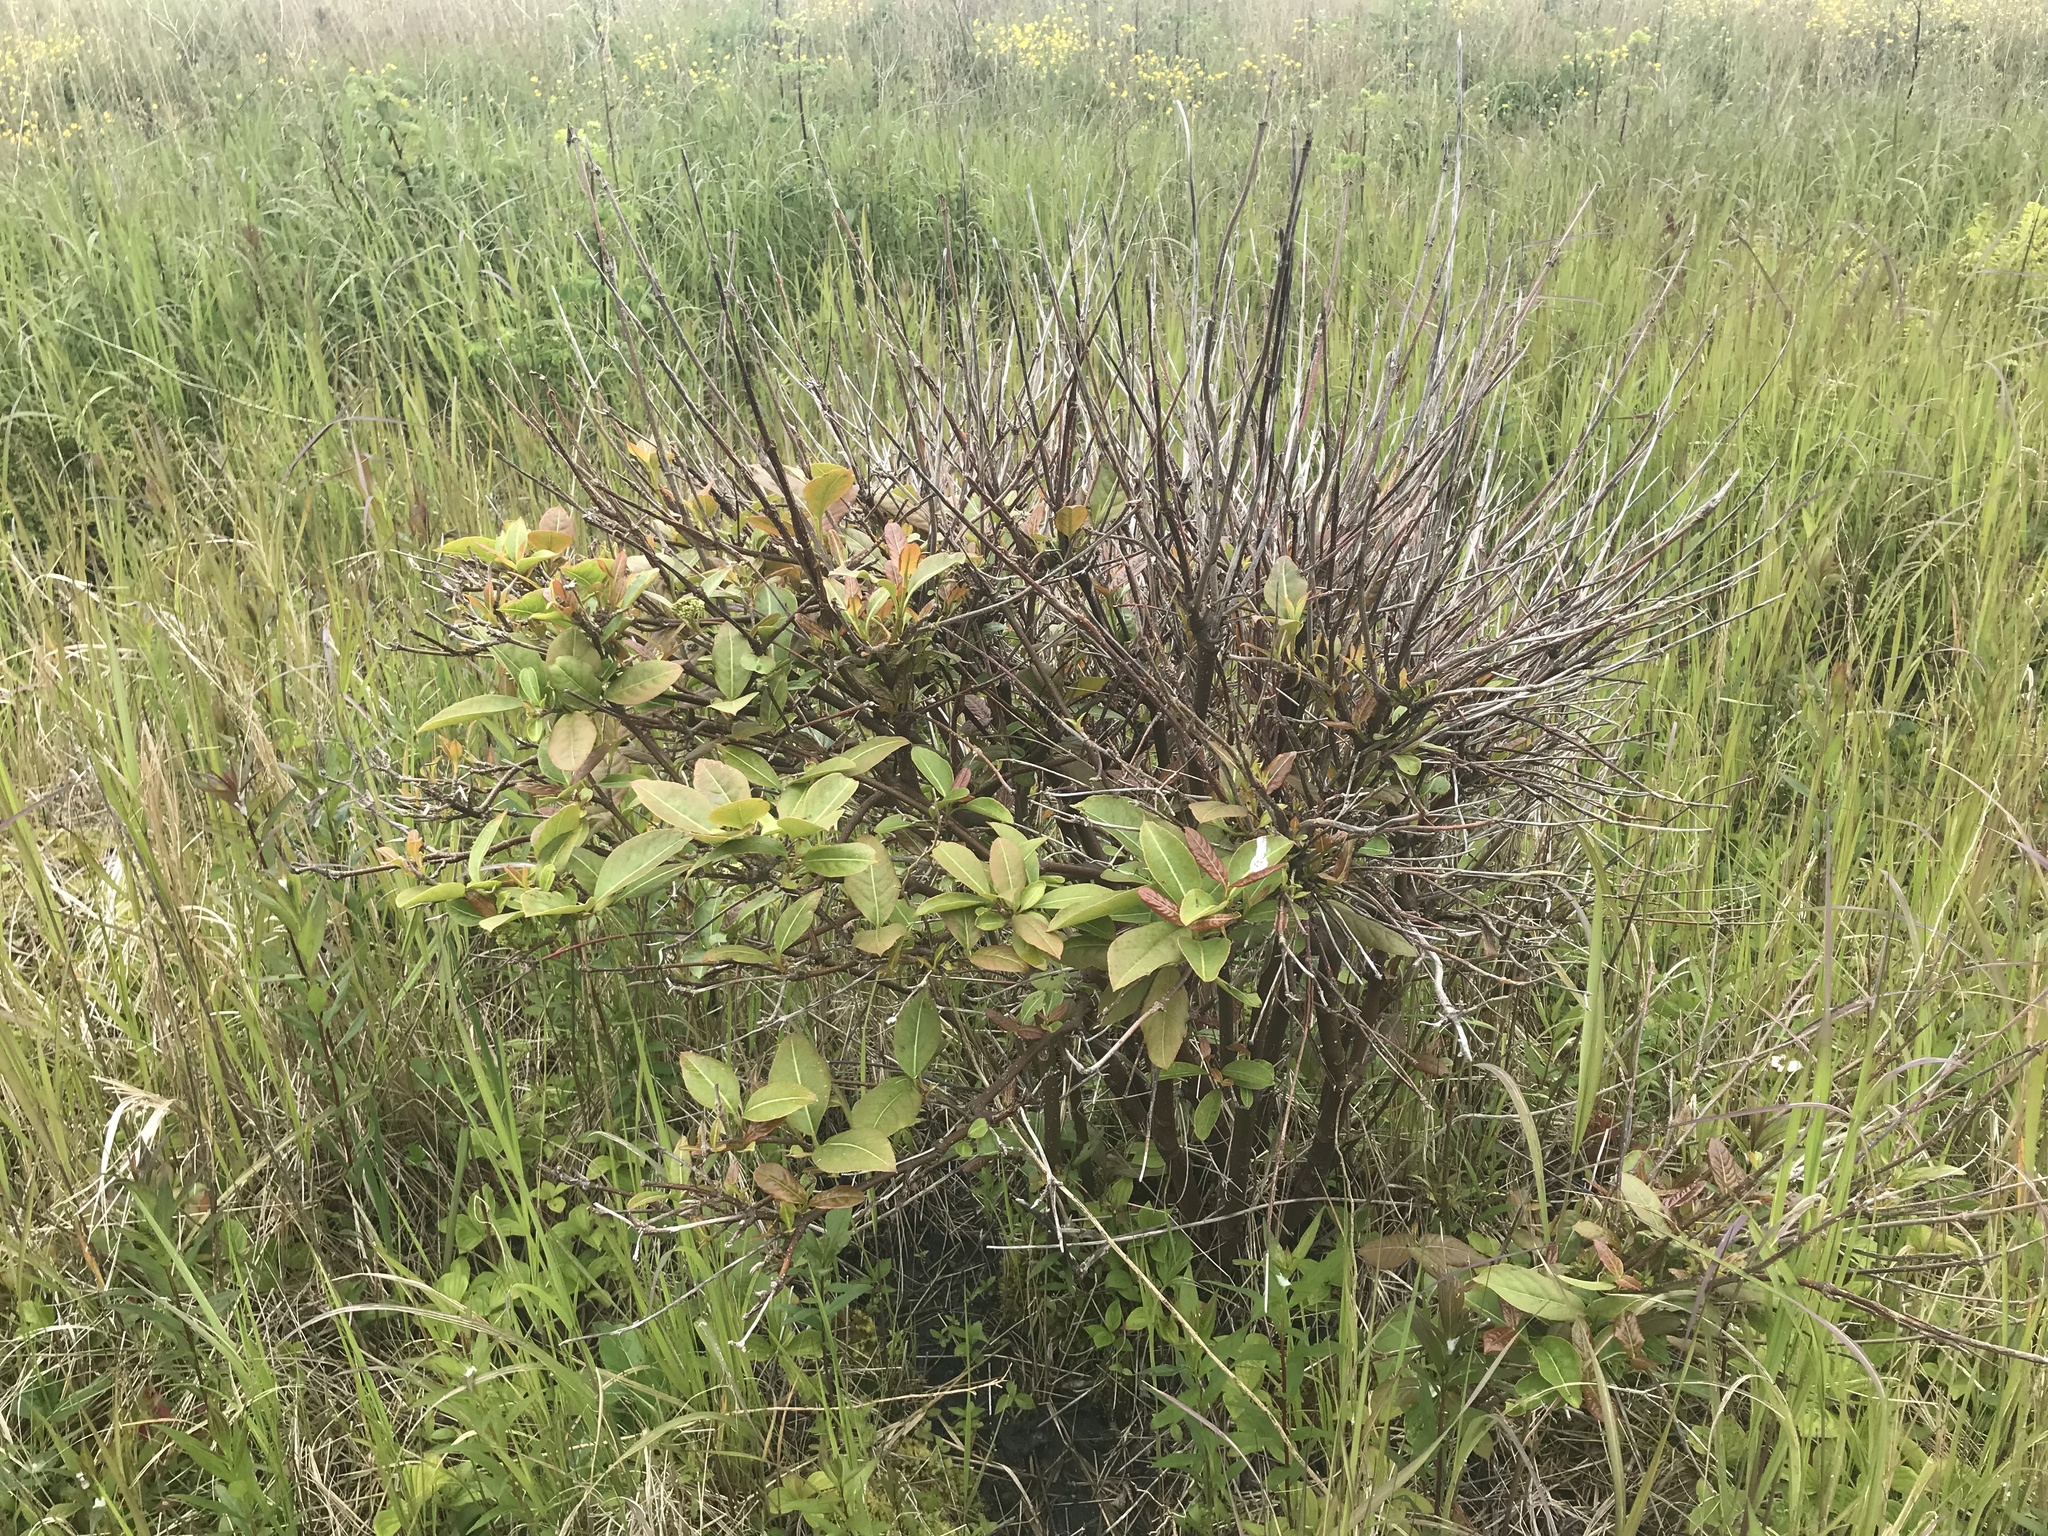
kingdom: Plantae
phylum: Tracheophyta
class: Magnoliopsida
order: Dipsacales
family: Viburnaceae
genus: Viburnum
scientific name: Viburnum cassinoides
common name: Swamp haw
